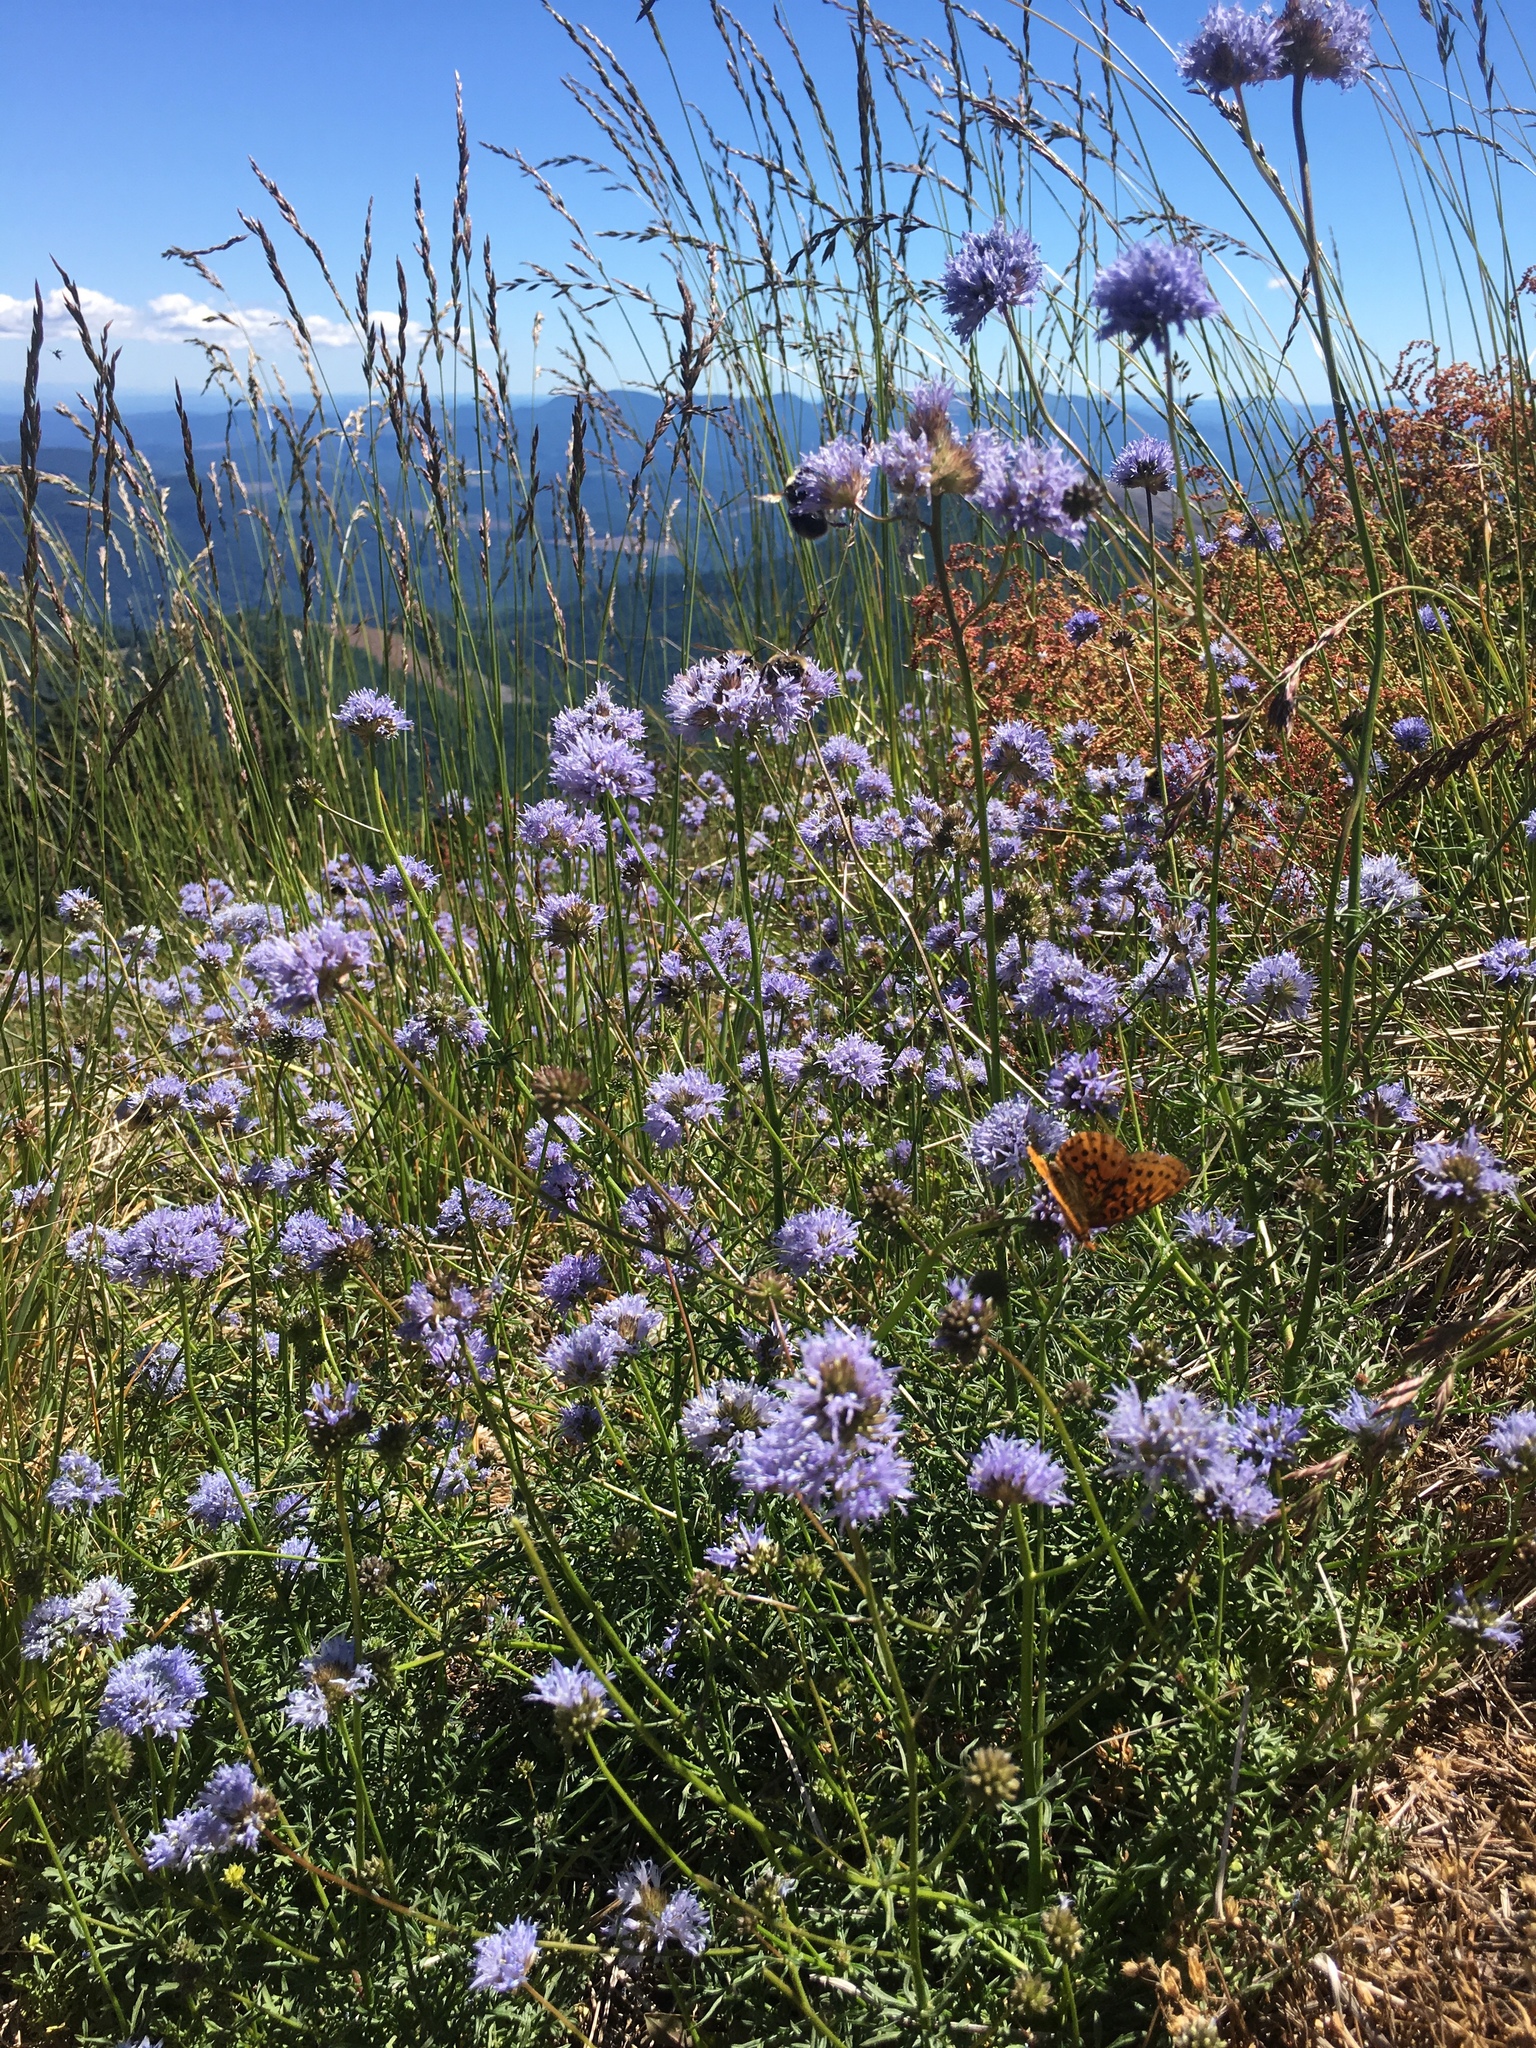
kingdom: Animalia
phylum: Arthropoda
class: Insecta
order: Lepidoptera
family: Nymphalidae
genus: Boloria
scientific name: Boloria epithore
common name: Pacific fritillary
